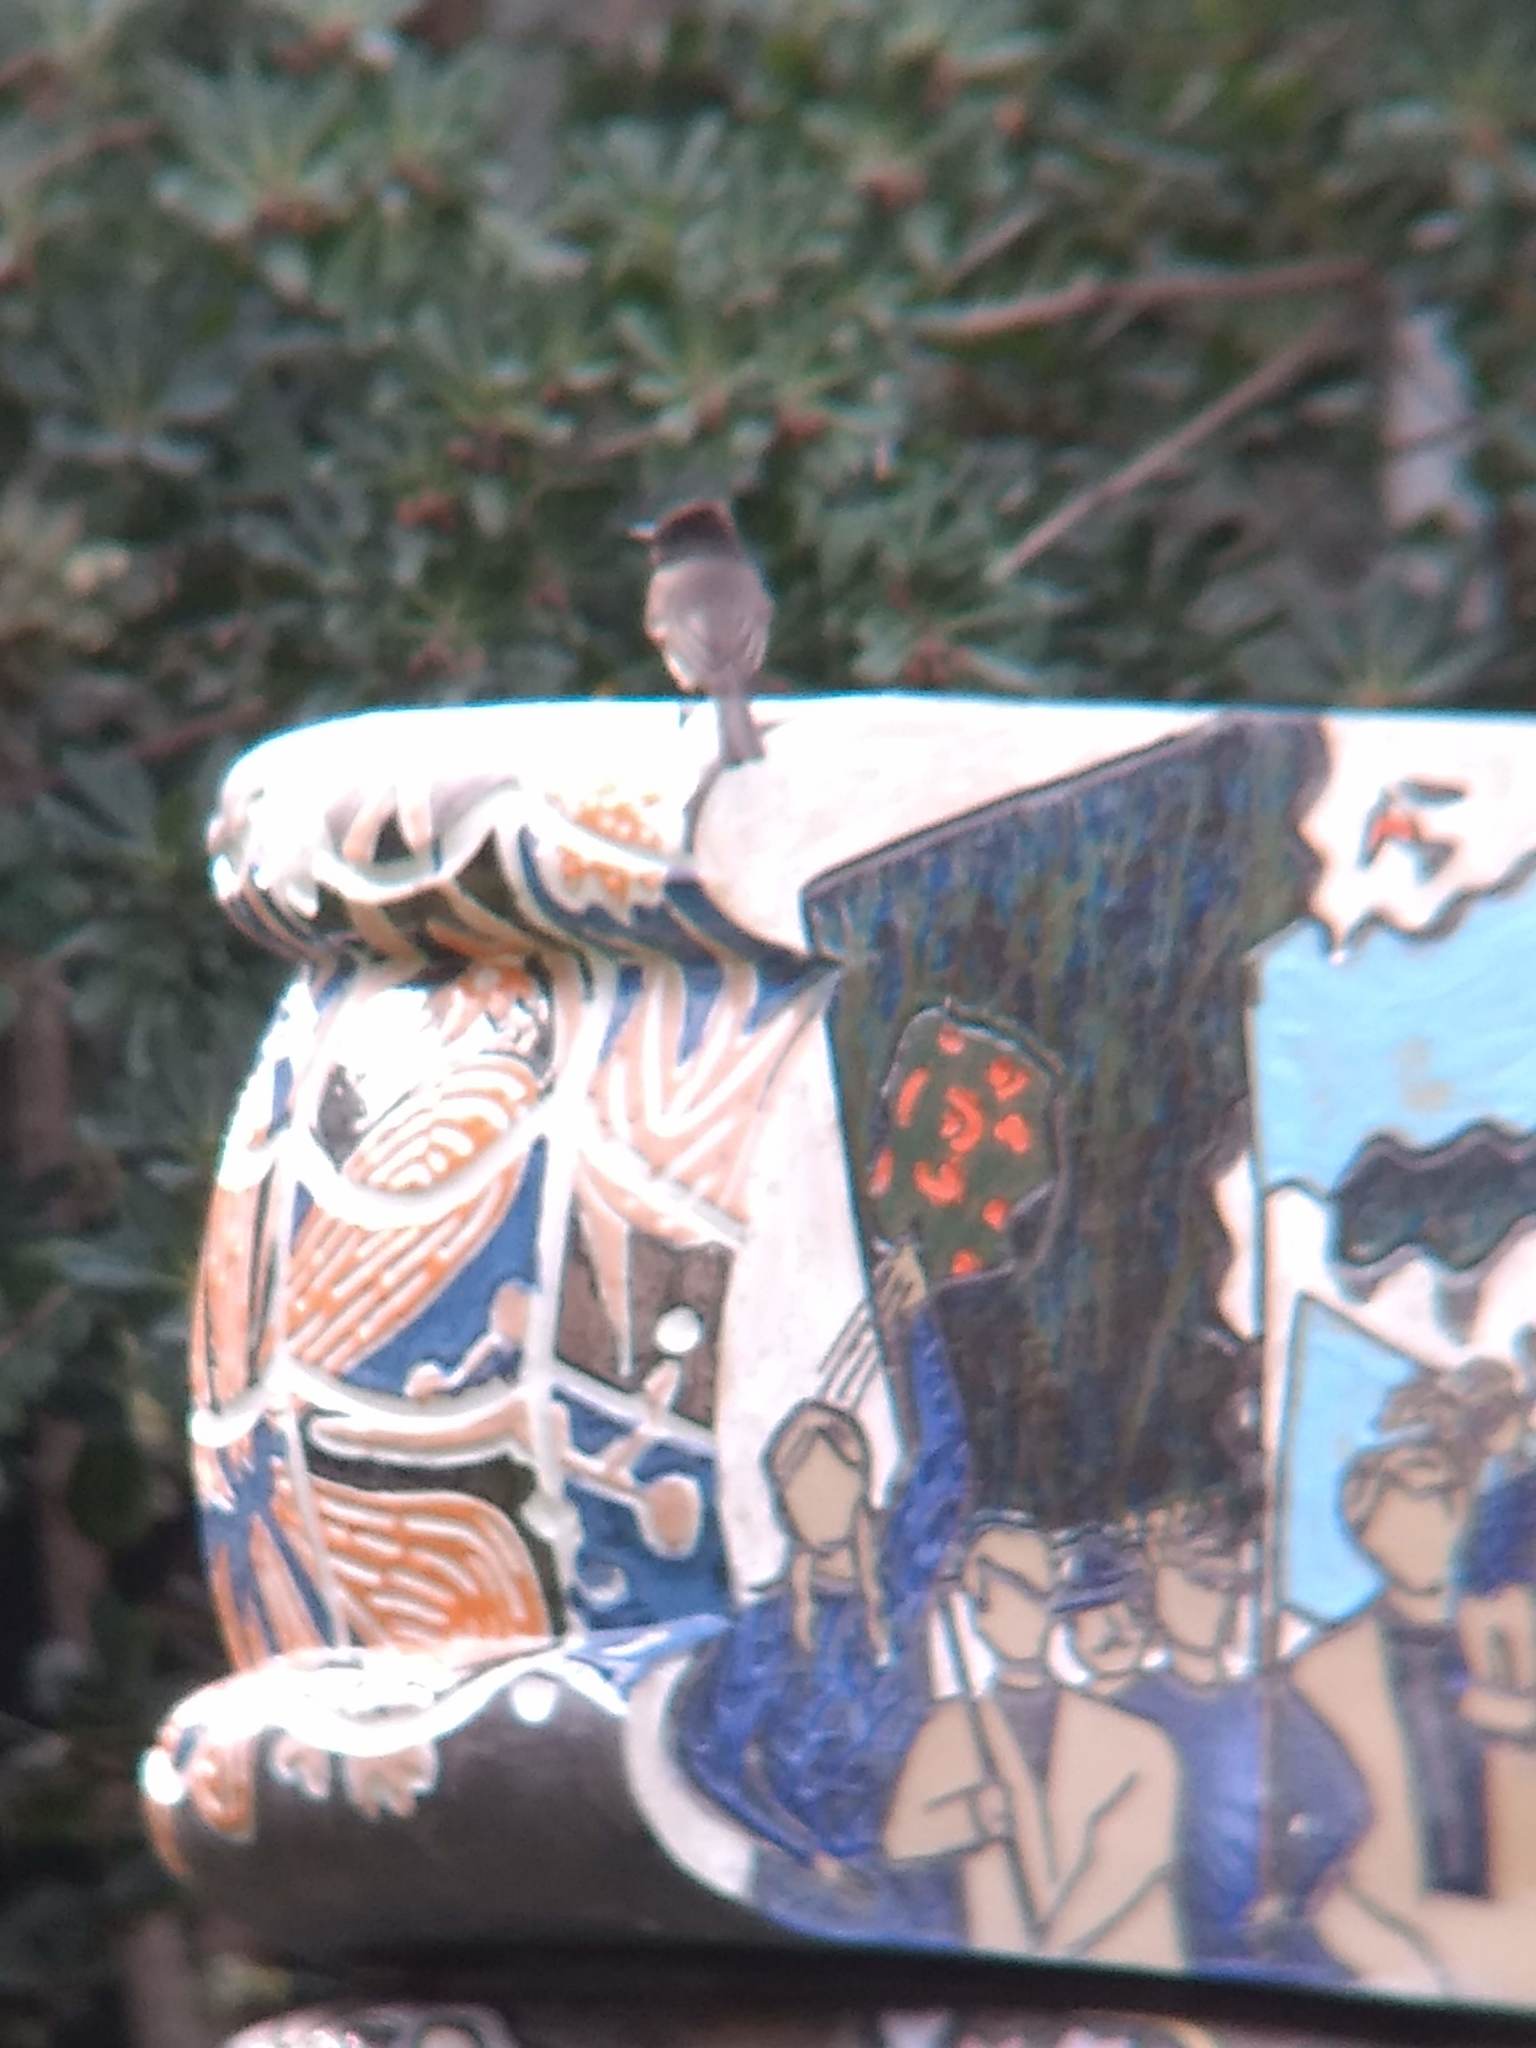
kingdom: Animalia
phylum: Chordata
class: Aves
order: Passeriformes
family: Tyrannidae
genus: Sayornis
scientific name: Sayornis nigricans
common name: Black phoebe
